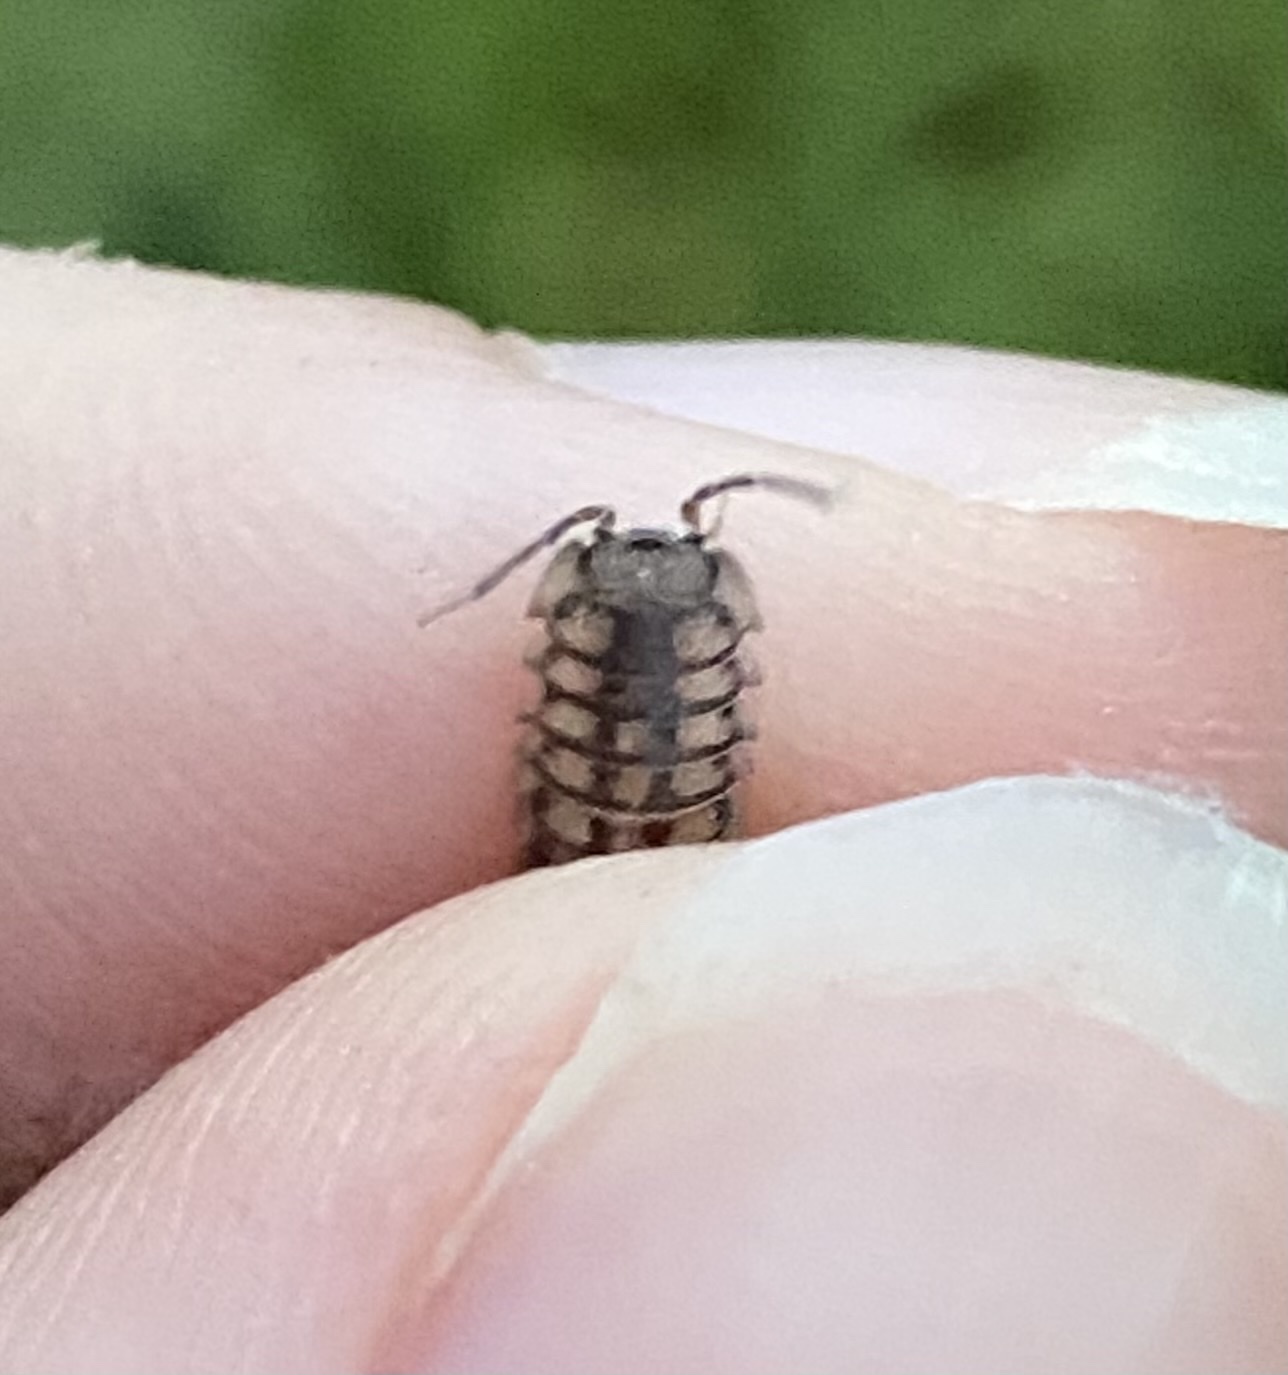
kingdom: Animalia
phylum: Arthropoda
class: Malacostraca
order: Isopoda
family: Armadillidiidae
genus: Armadillidium
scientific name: Armadillidium nasatum
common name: Isopod
